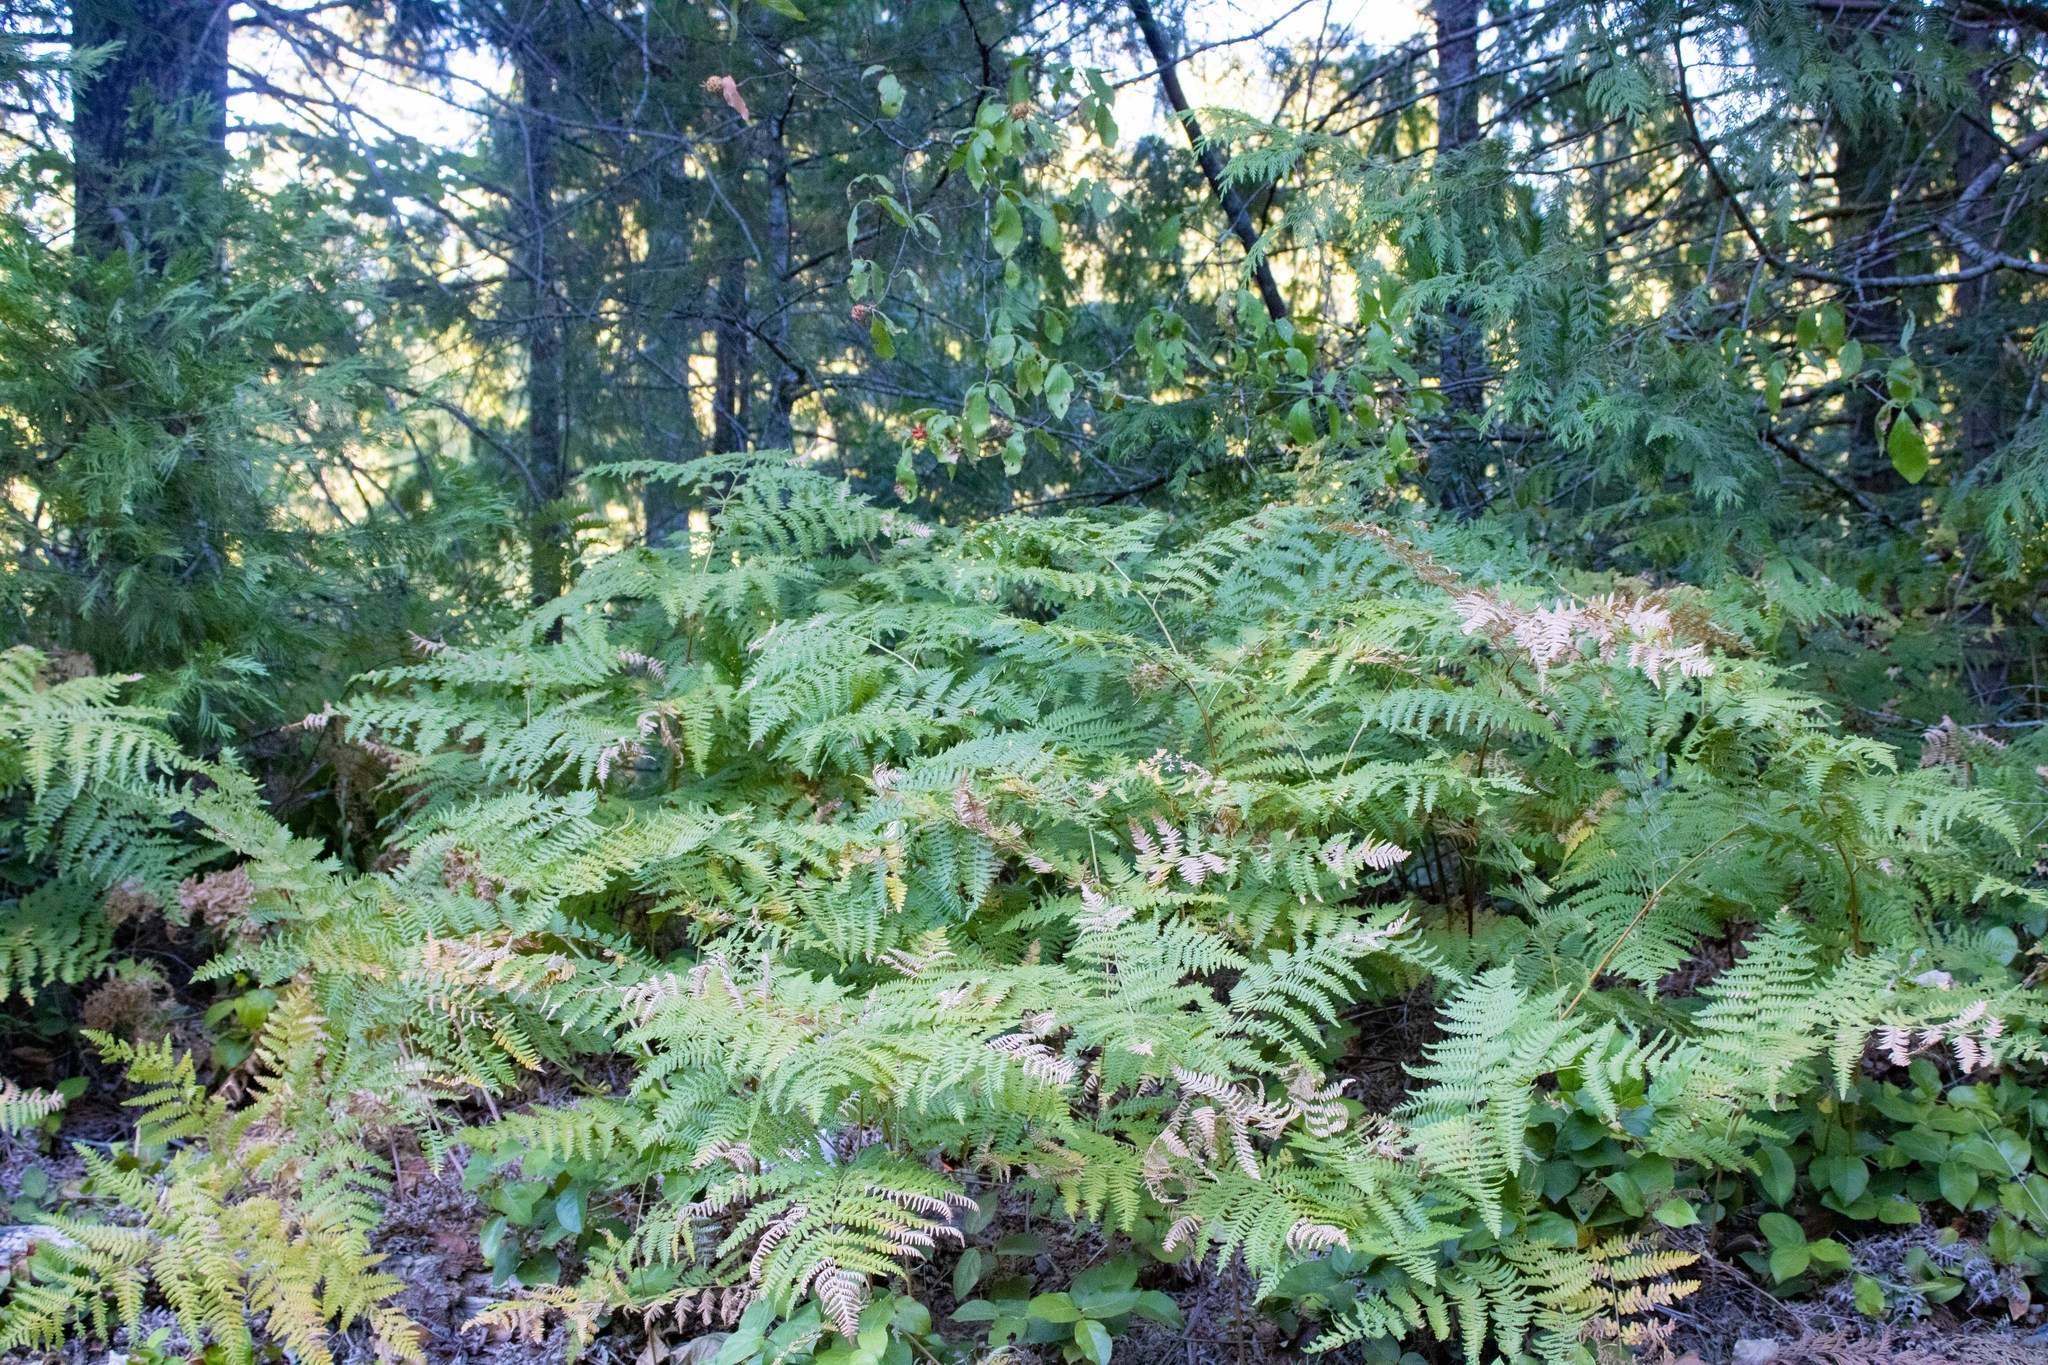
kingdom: Plantae
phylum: Tracheophyta
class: Polypodiopsida
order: Polypodiales
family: Dennstaedtiaceae
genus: Pteridium
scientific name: Pteridium aquilinum
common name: Bracken
